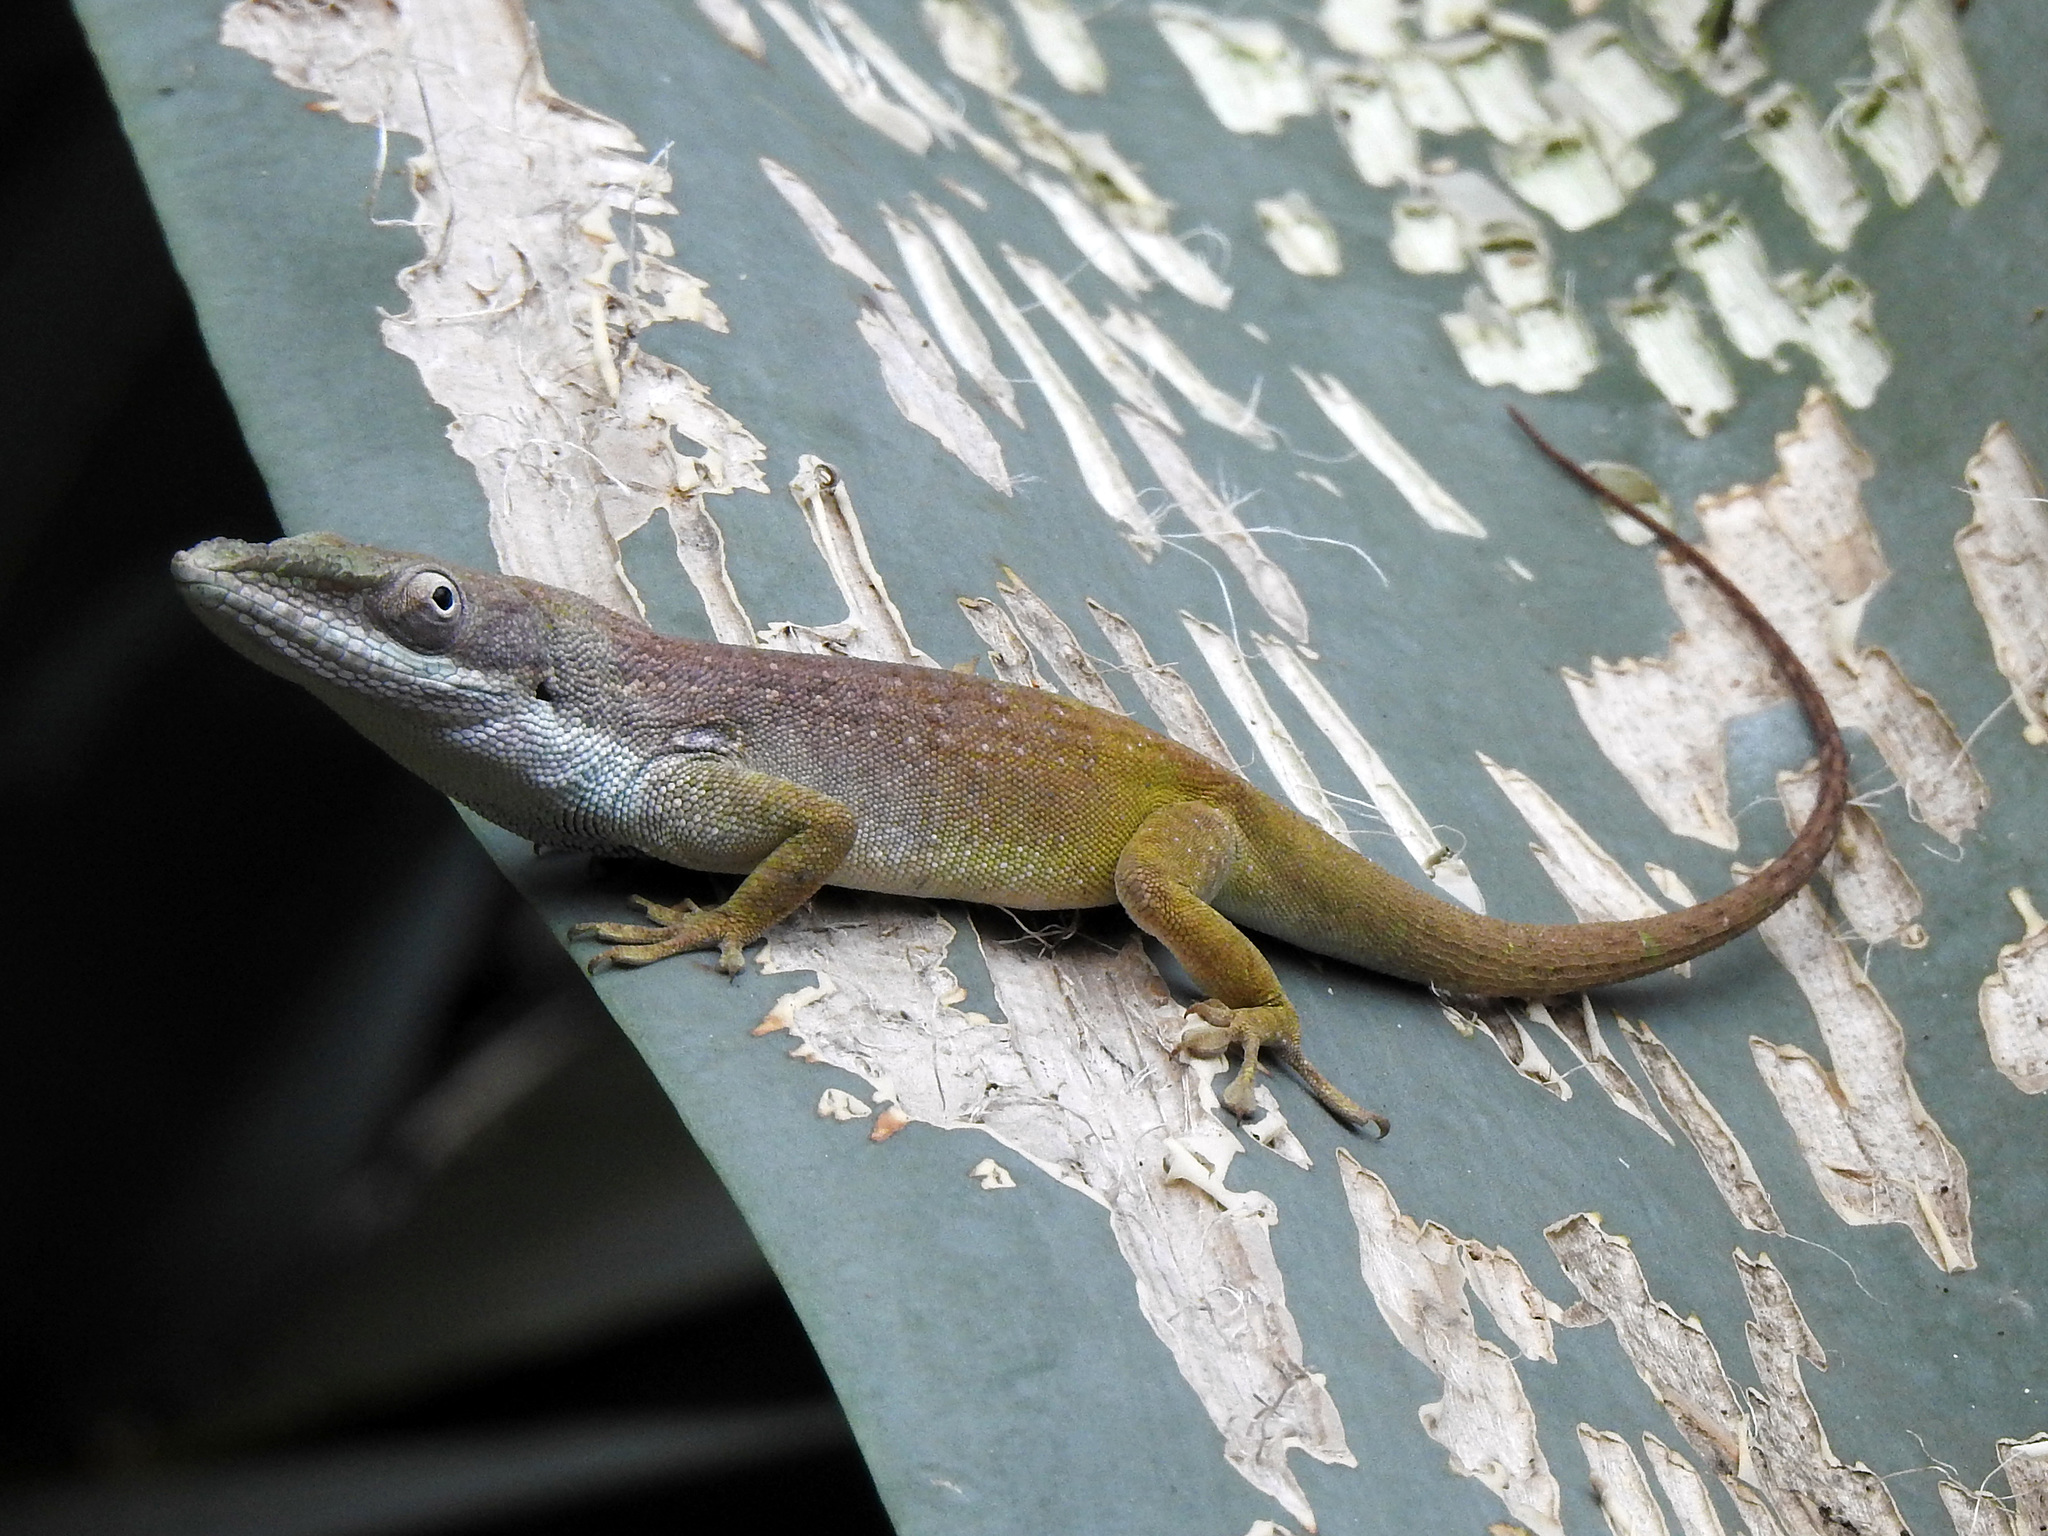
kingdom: Animalia
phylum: Chordata
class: Squamata
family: Dactyloidae
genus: Anolis
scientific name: Anolis allisoni
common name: Allison's anole
